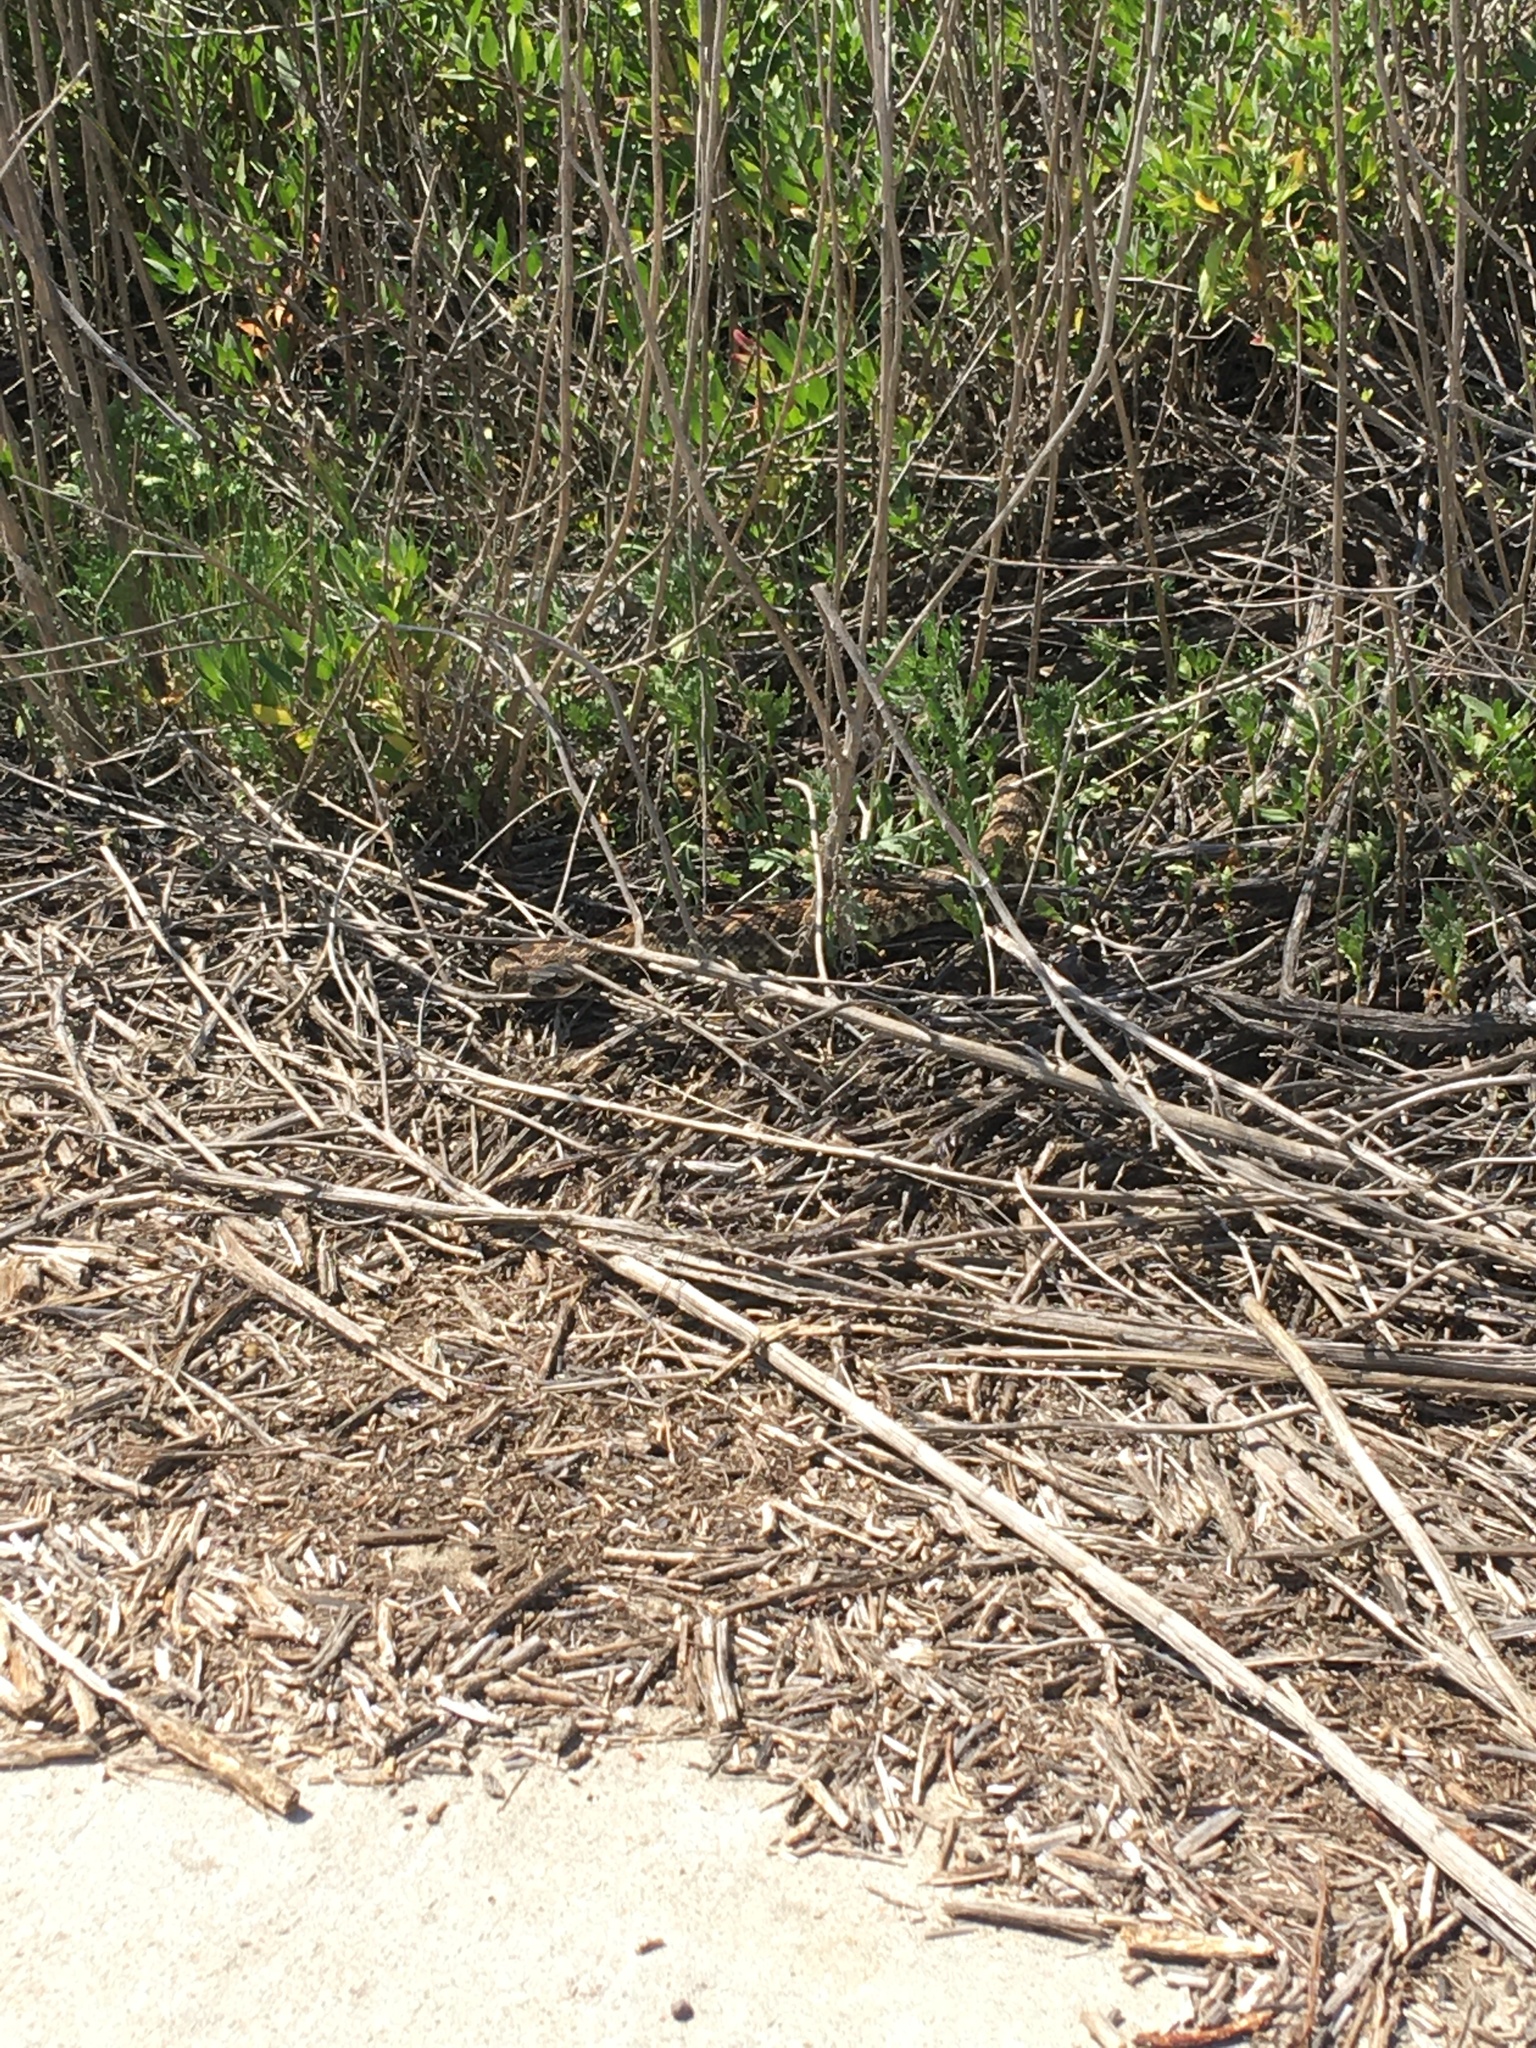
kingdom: Animalia
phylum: Chordata
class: Squamata
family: Viperidae
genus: Crotalus
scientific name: Crotalus oreganus
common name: Abyssus
